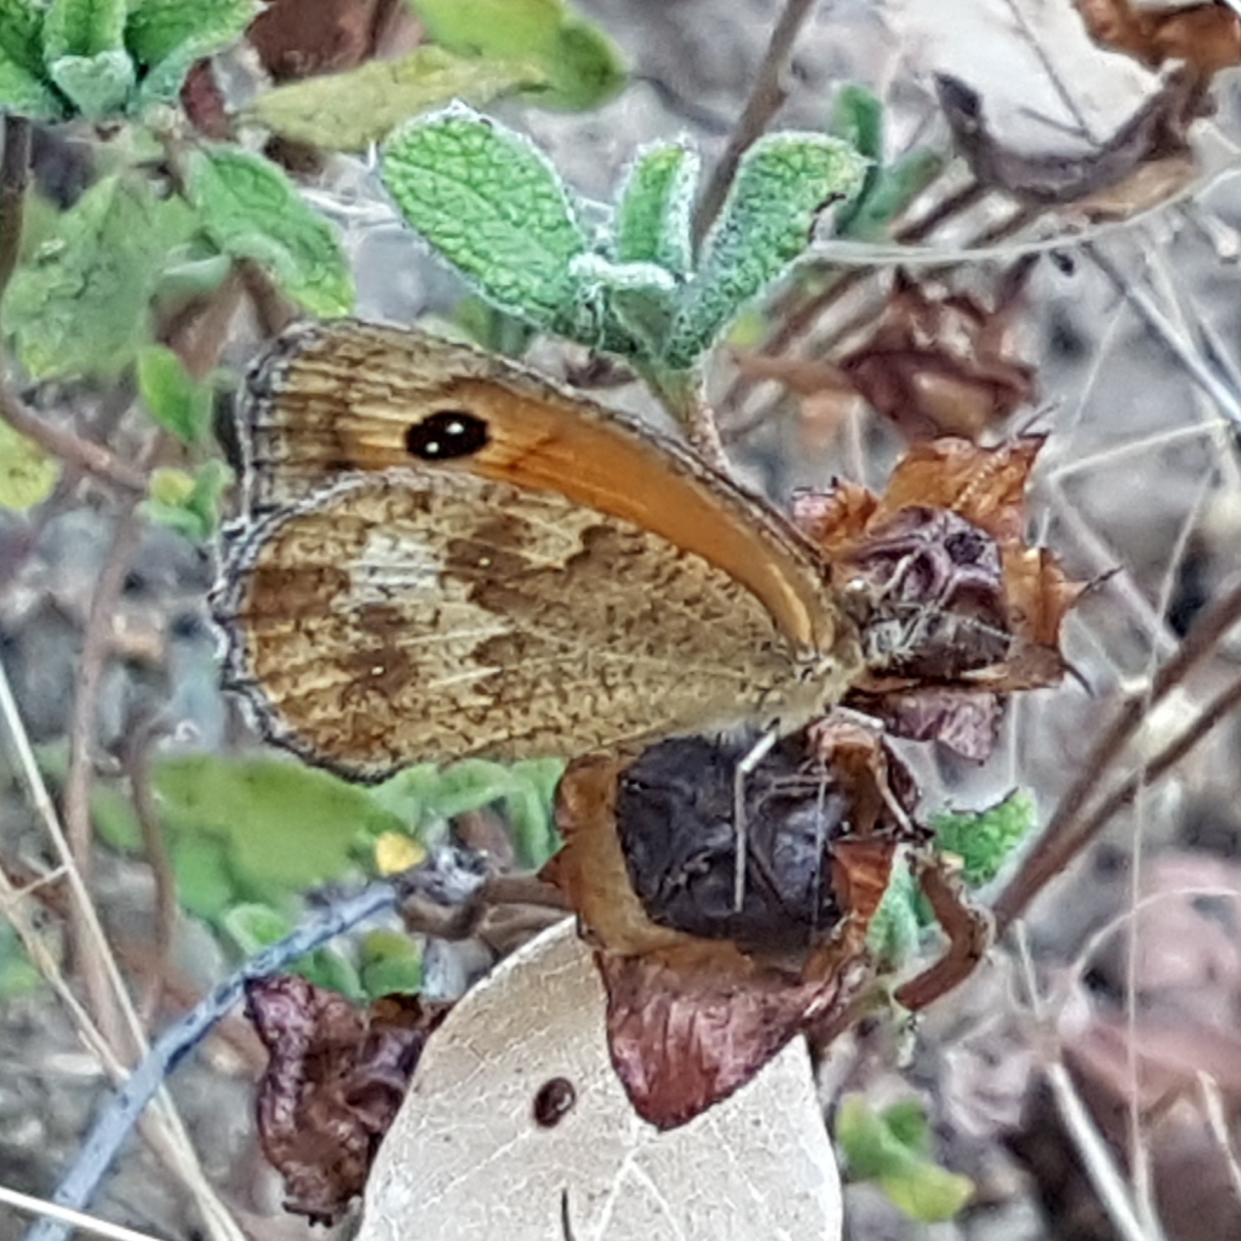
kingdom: Animalia
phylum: Arthropoda
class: Insecta
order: Lepidoptera
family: Nymphalidae
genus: Pyronia
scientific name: Pyronia tithonus
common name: Gatekeeper
